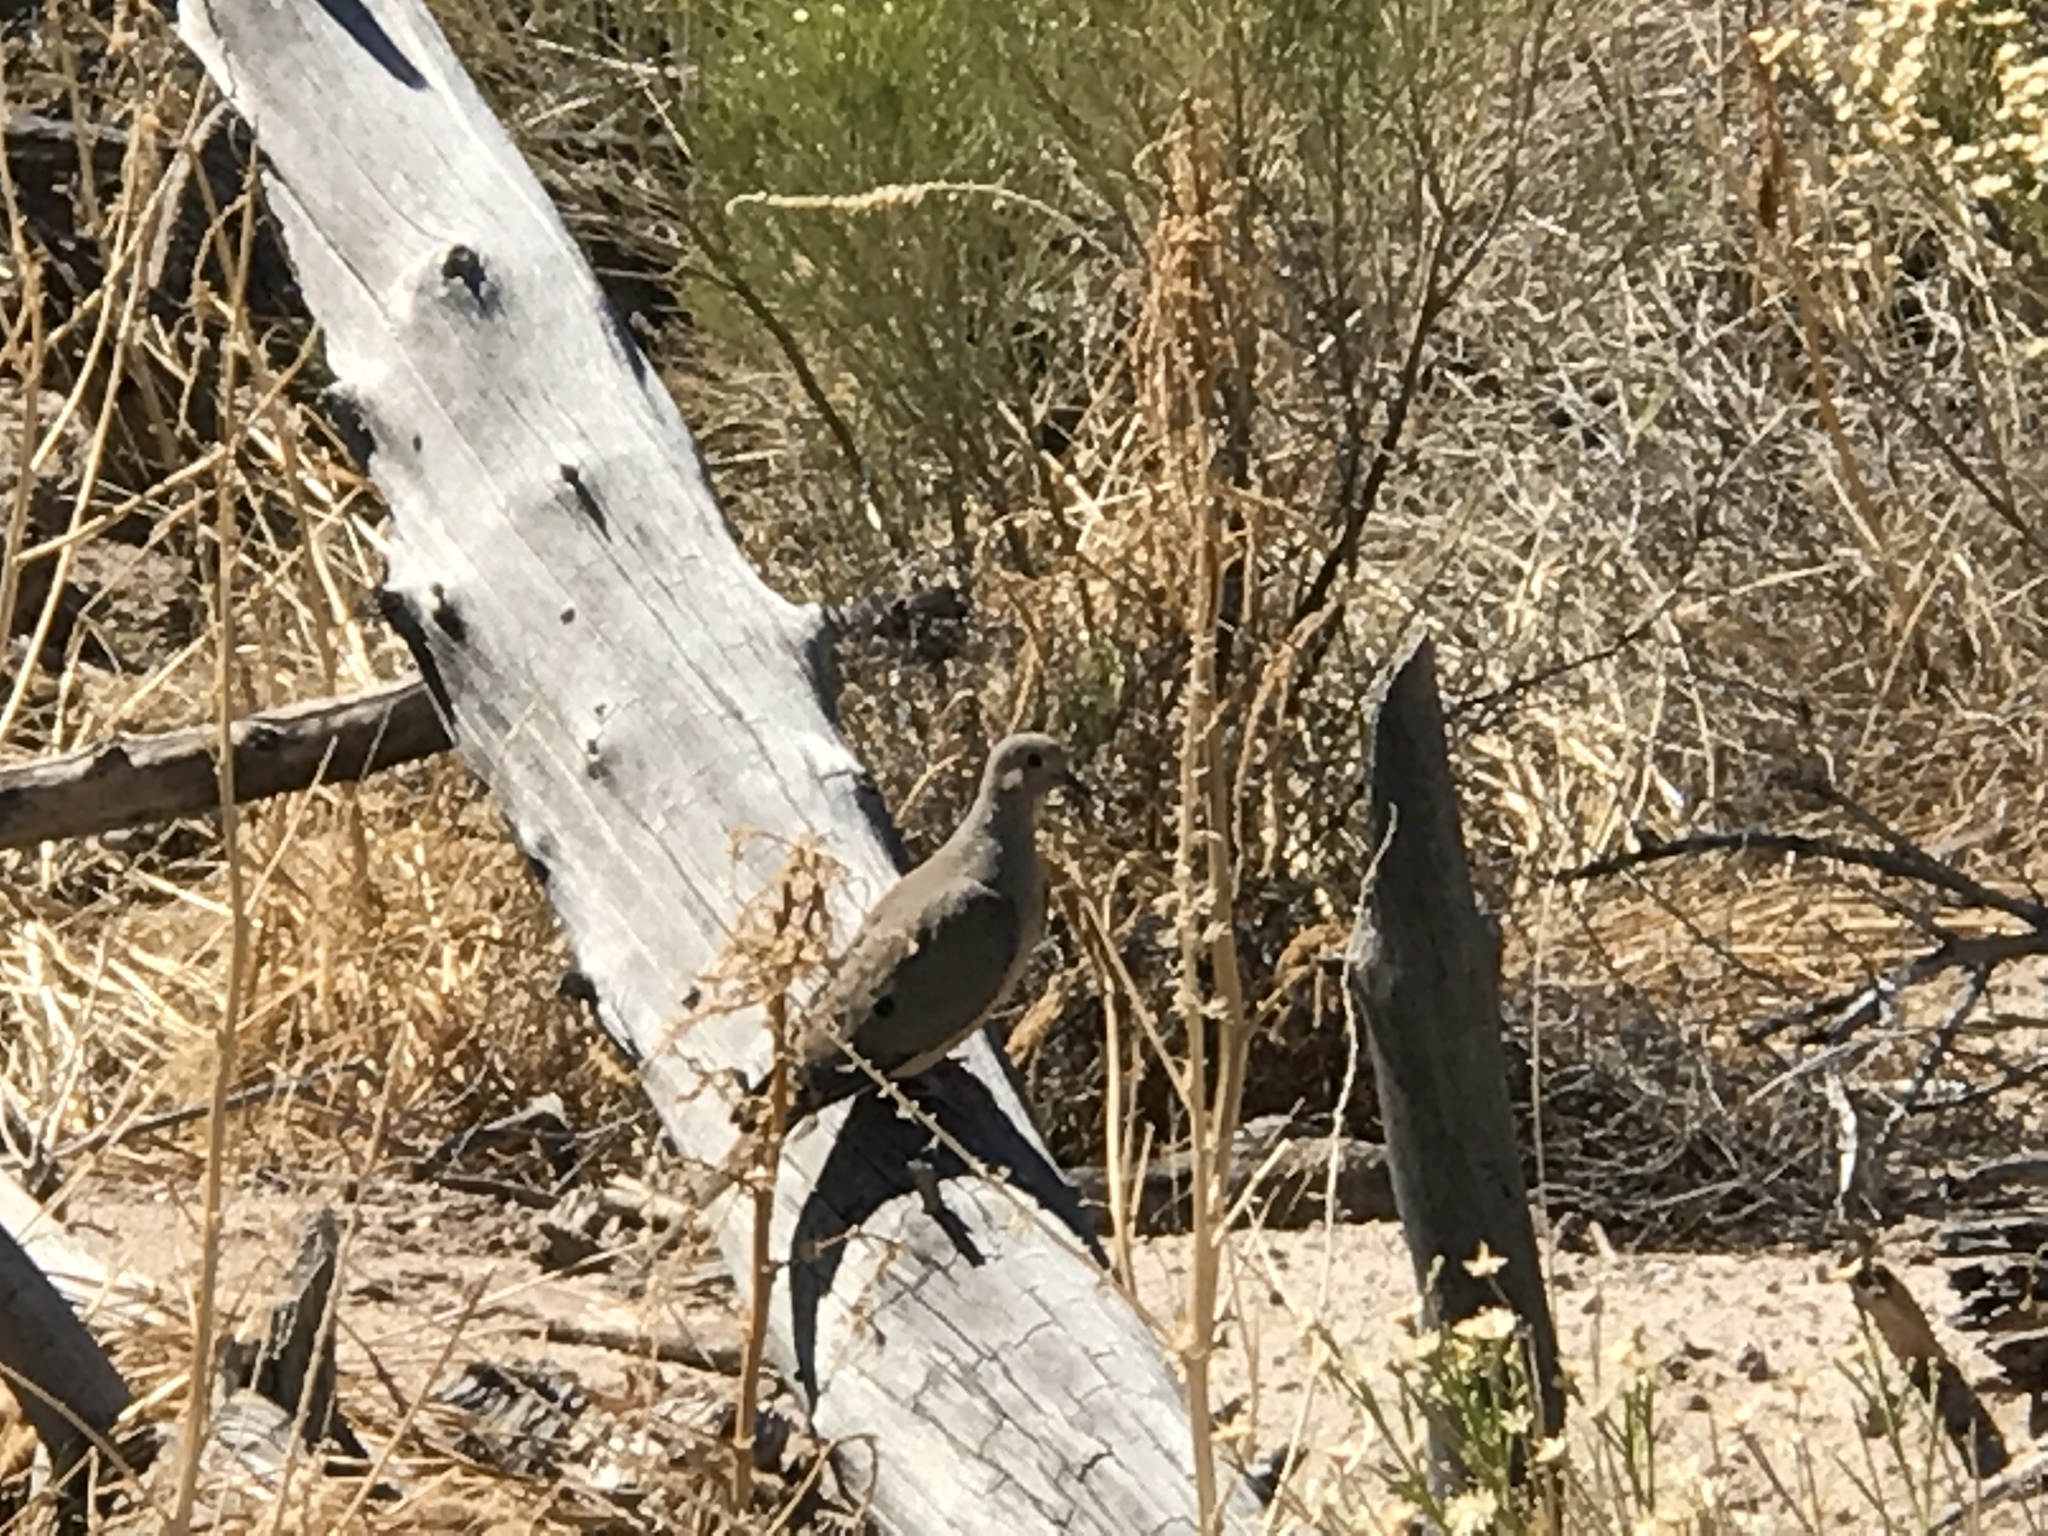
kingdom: Animalia
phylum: Chordata
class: Aves
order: Columbiformes
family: Columbidae
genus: Zenaida
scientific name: Zenaida macroura
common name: Mourning dove
